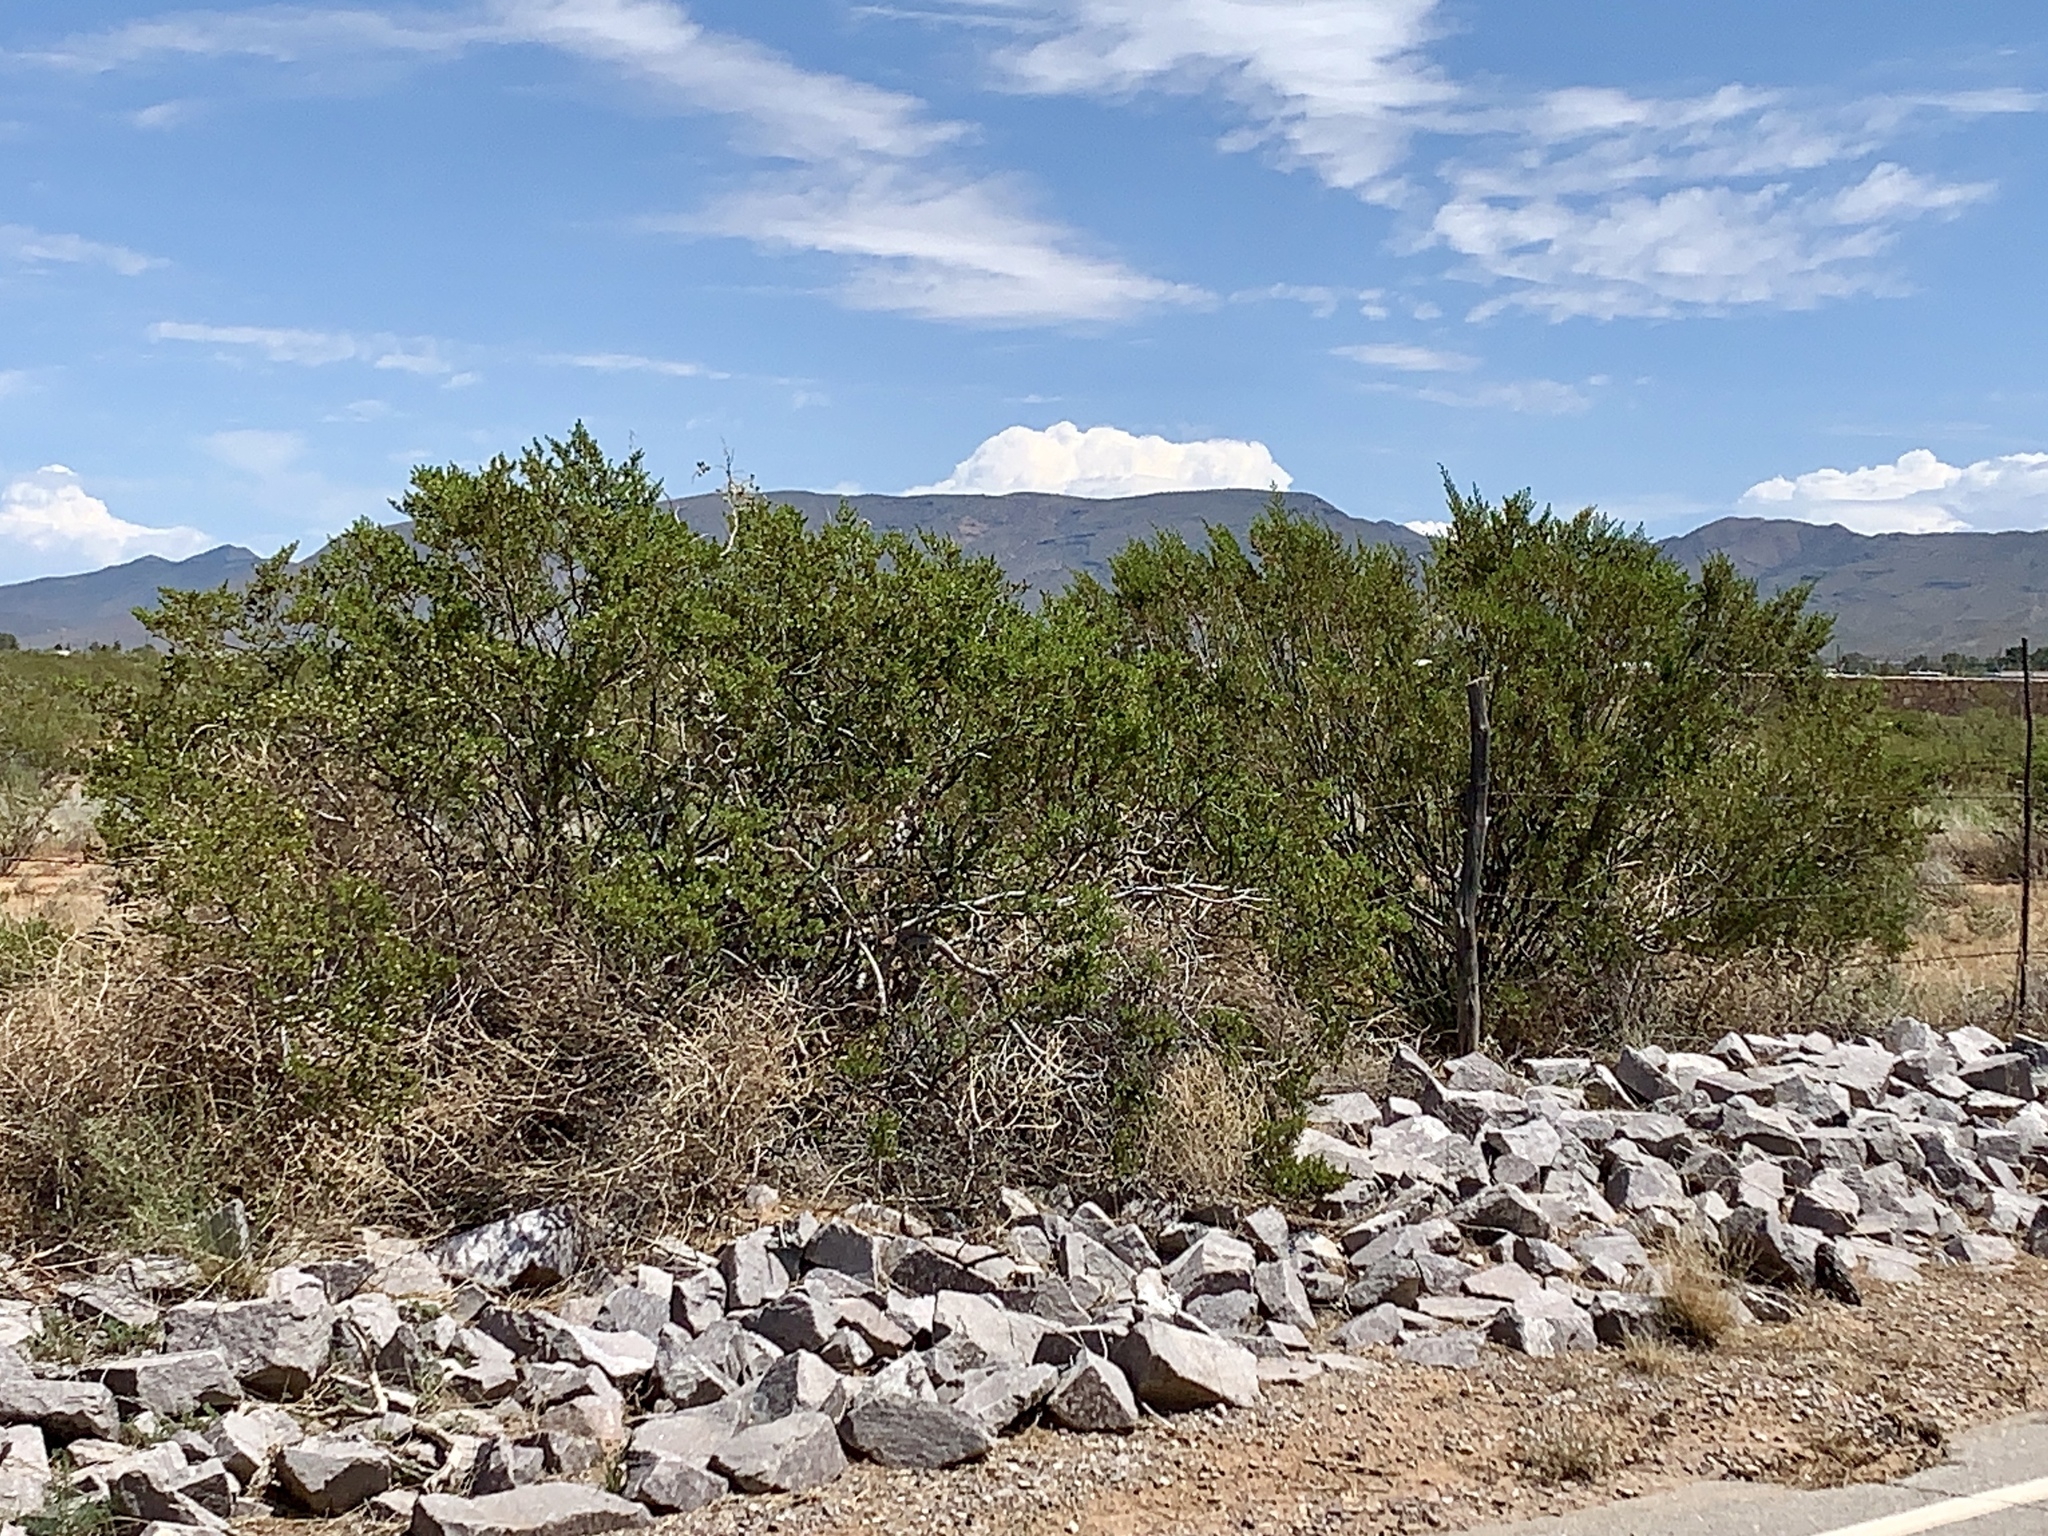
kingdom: Plantae
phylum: Tracheophyta
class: Magnoliopsida
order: Zygophyllales
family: Zygophyllaceae
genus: Larrea
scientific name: Larrea tridentata
